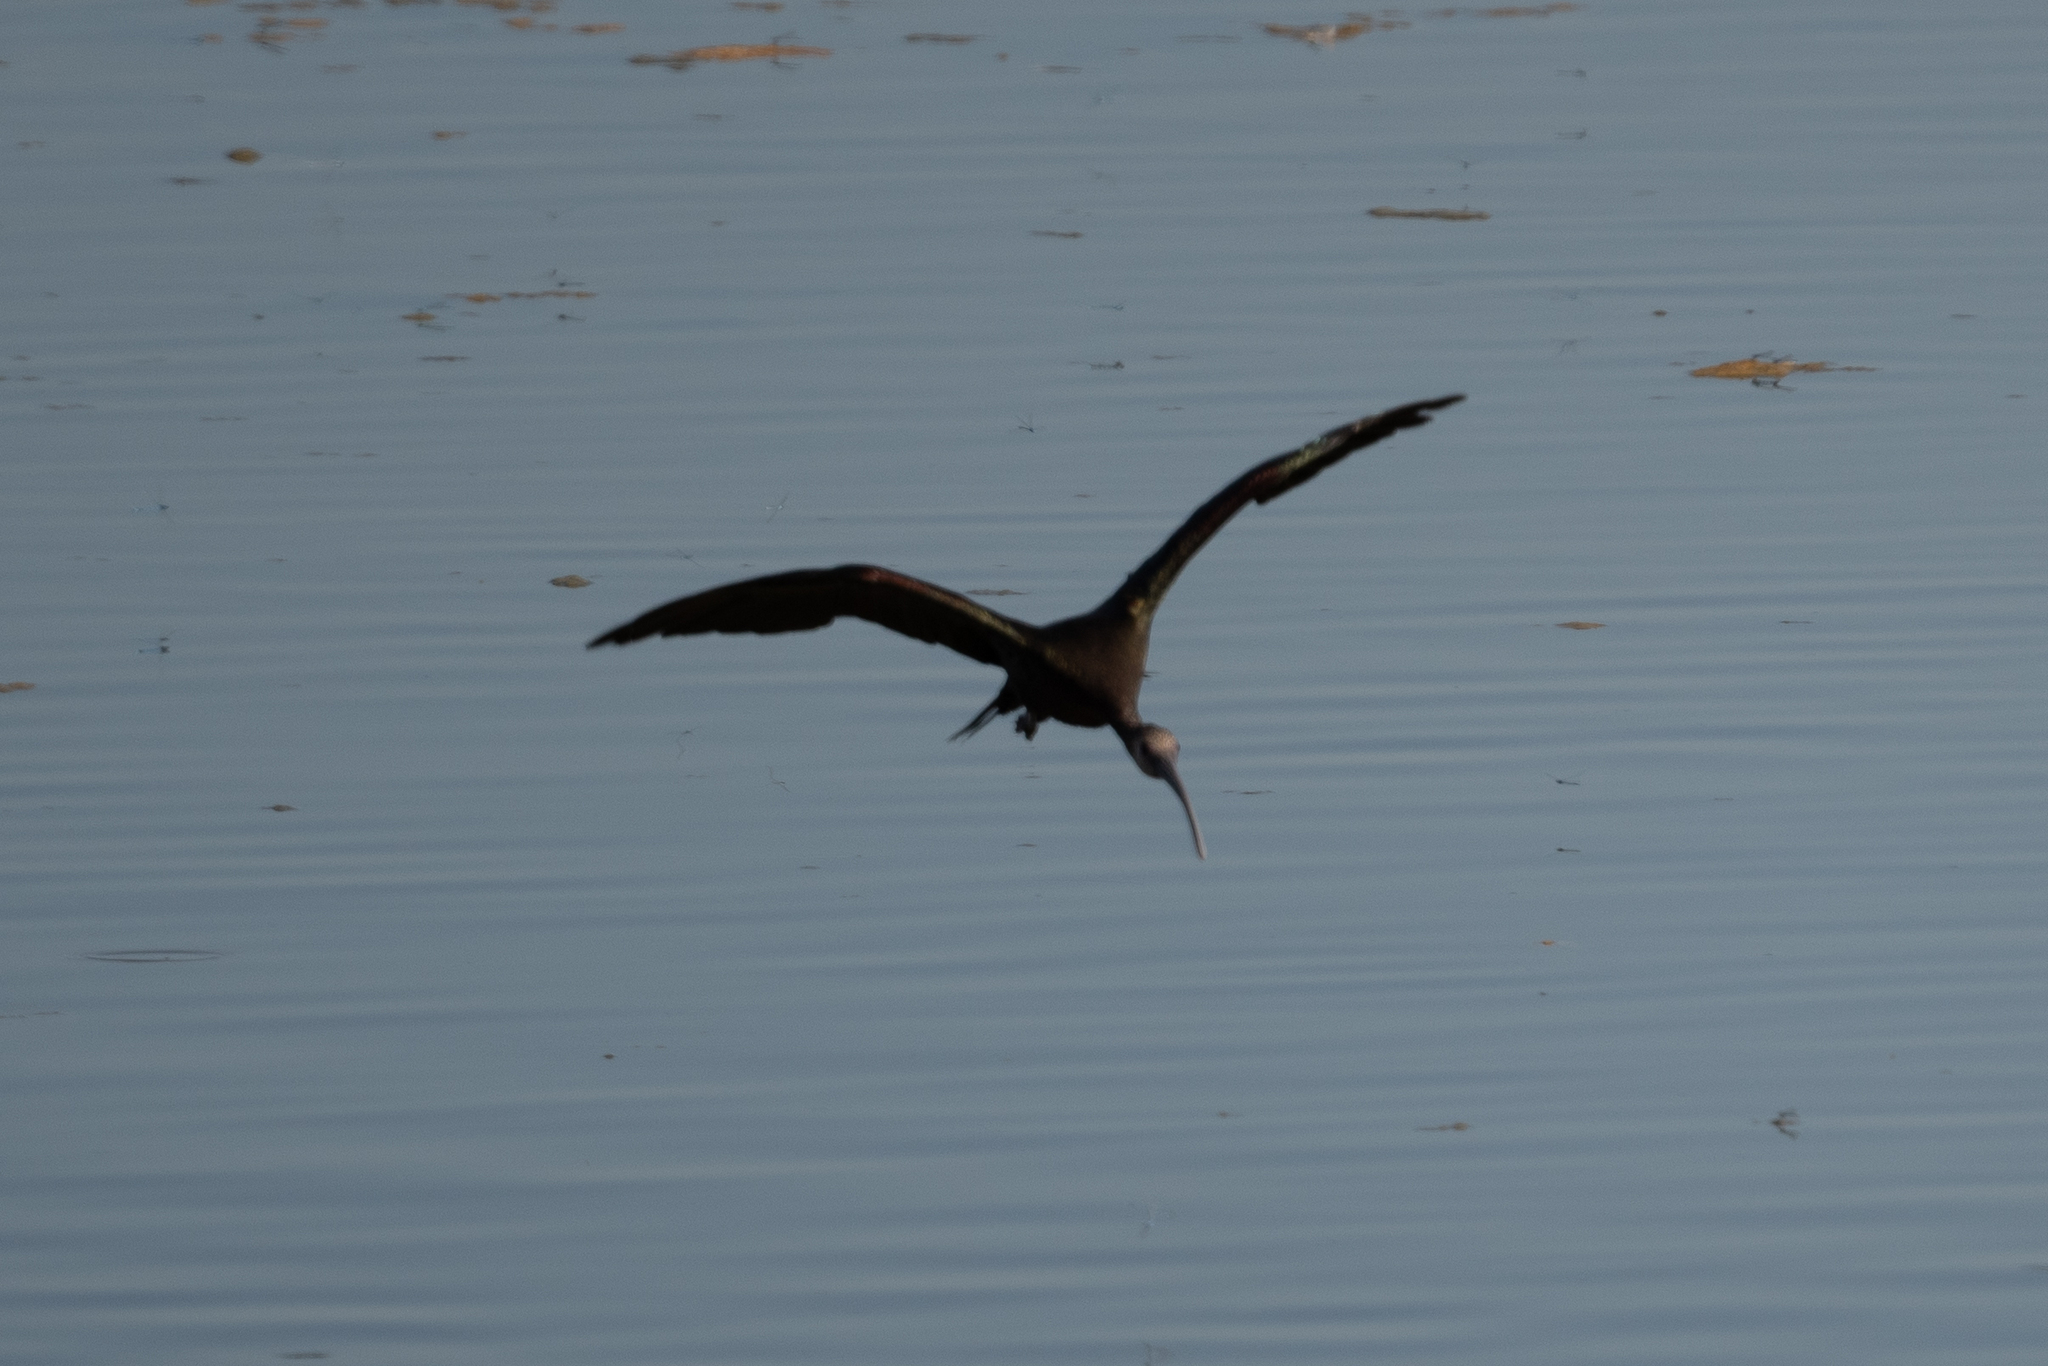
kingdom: Animalia
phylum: Chordata
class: Aves
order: Pelecaniformes
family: Threskiornithidae
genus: Plegadis
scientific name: Plegadis chihi
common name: White-faced ibis
